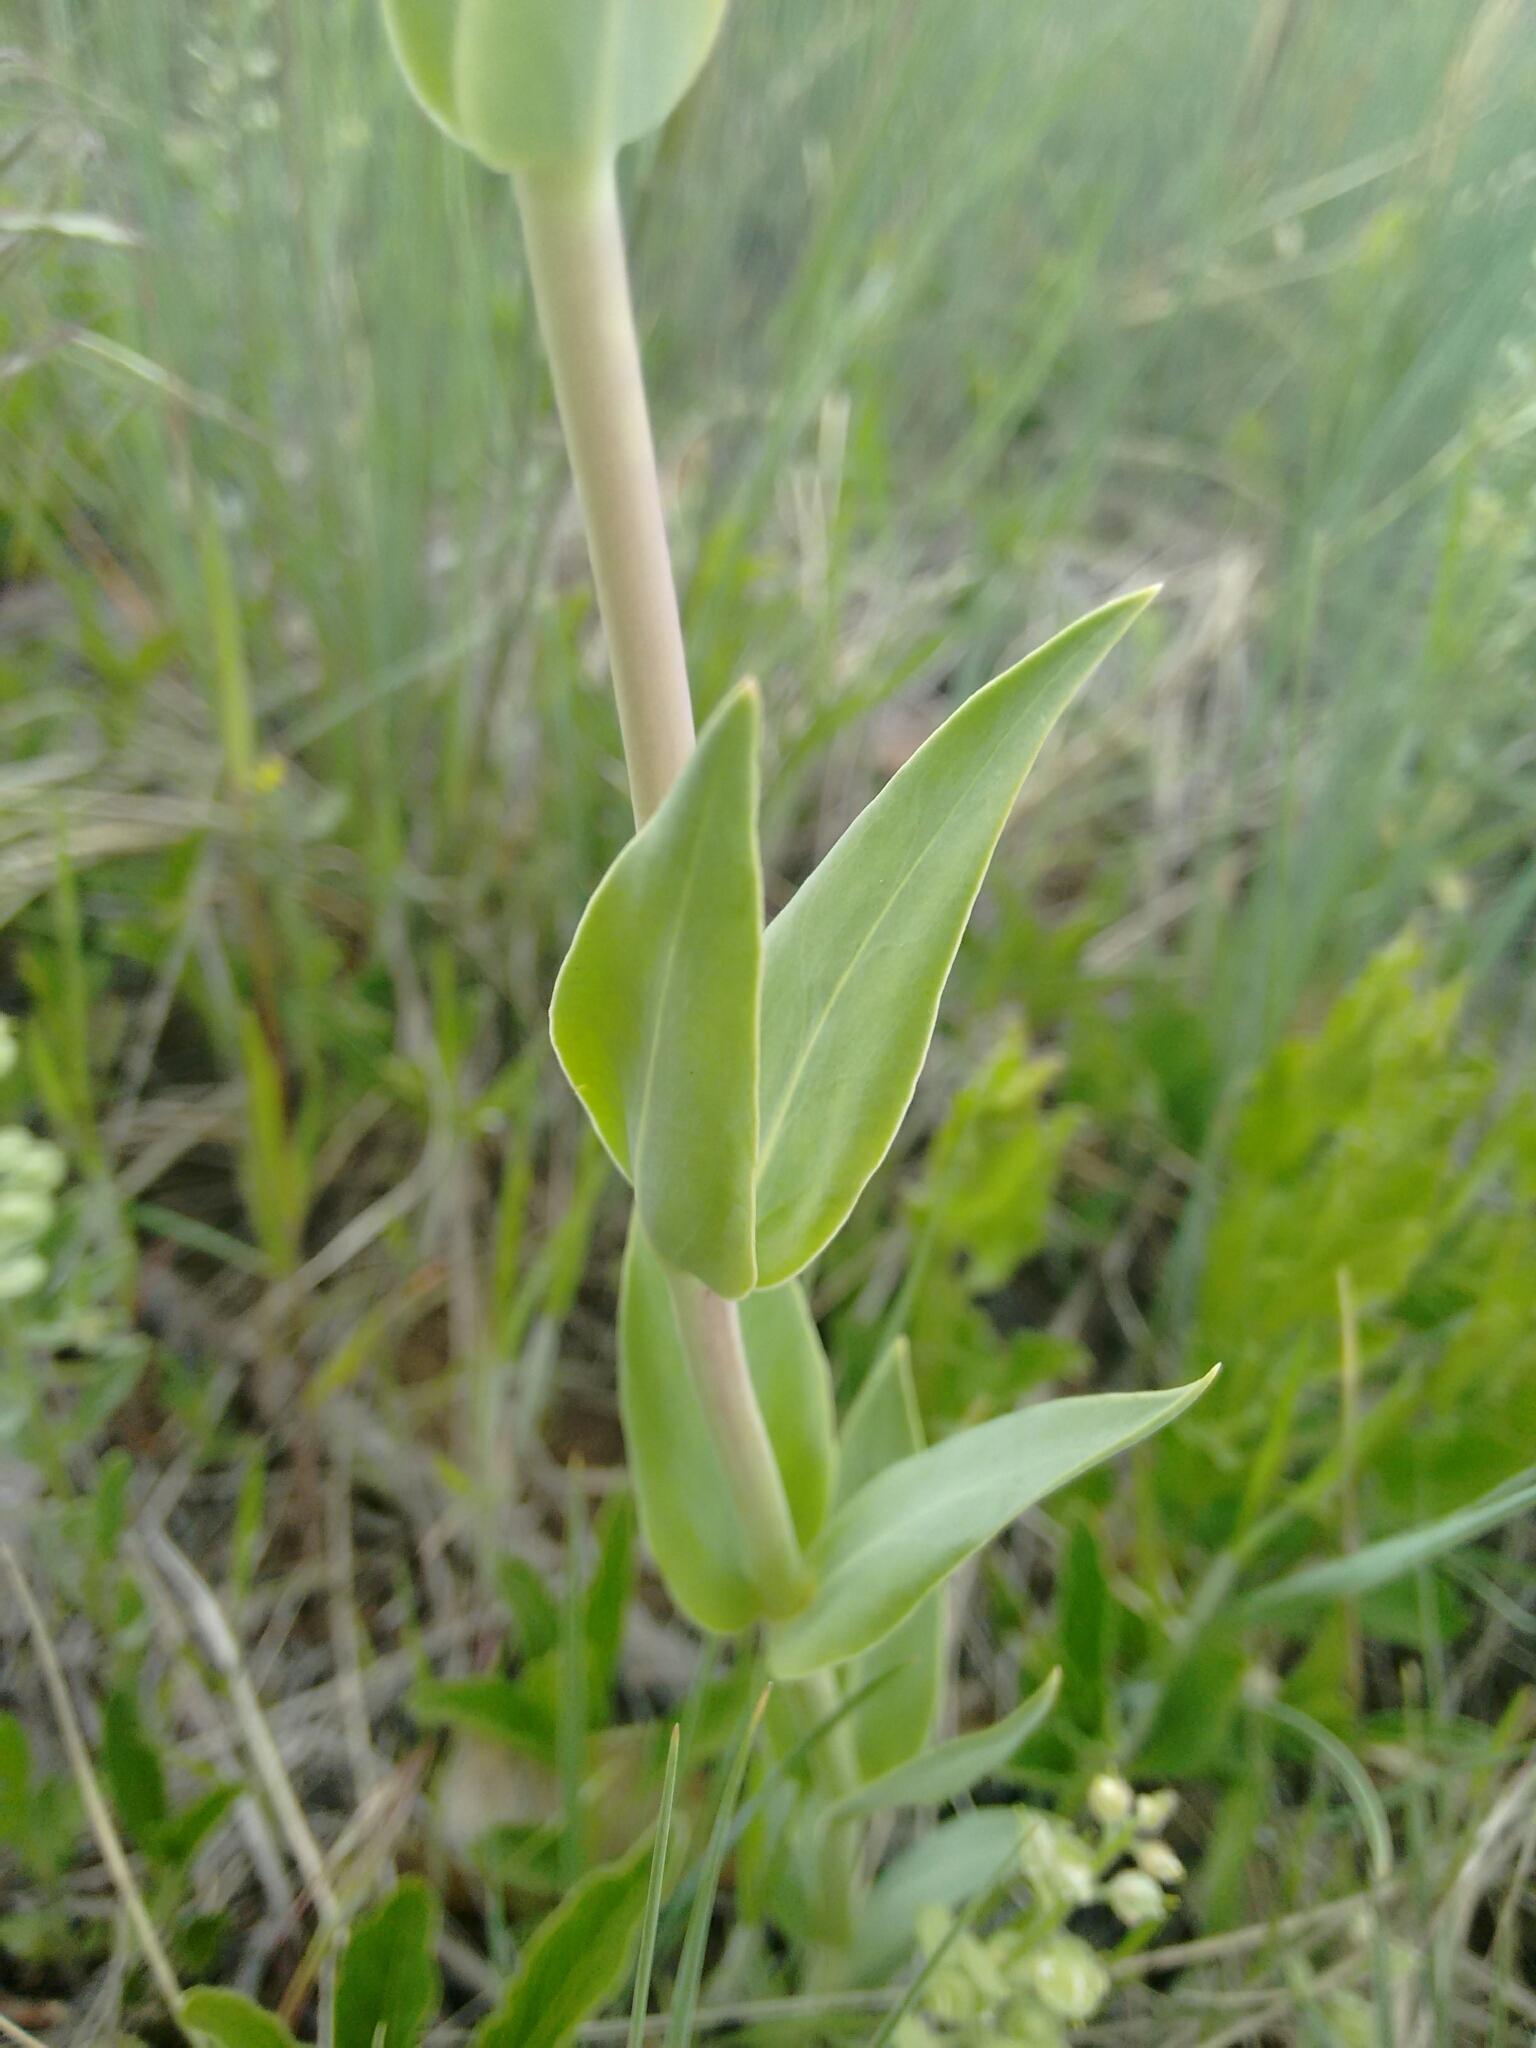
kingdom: Plantae
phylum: Tracheophyta
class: Magnoliopsida
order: Lamiales
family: Plantaginaceae
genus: Penstemon
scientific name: Penstemon secundiflorus
